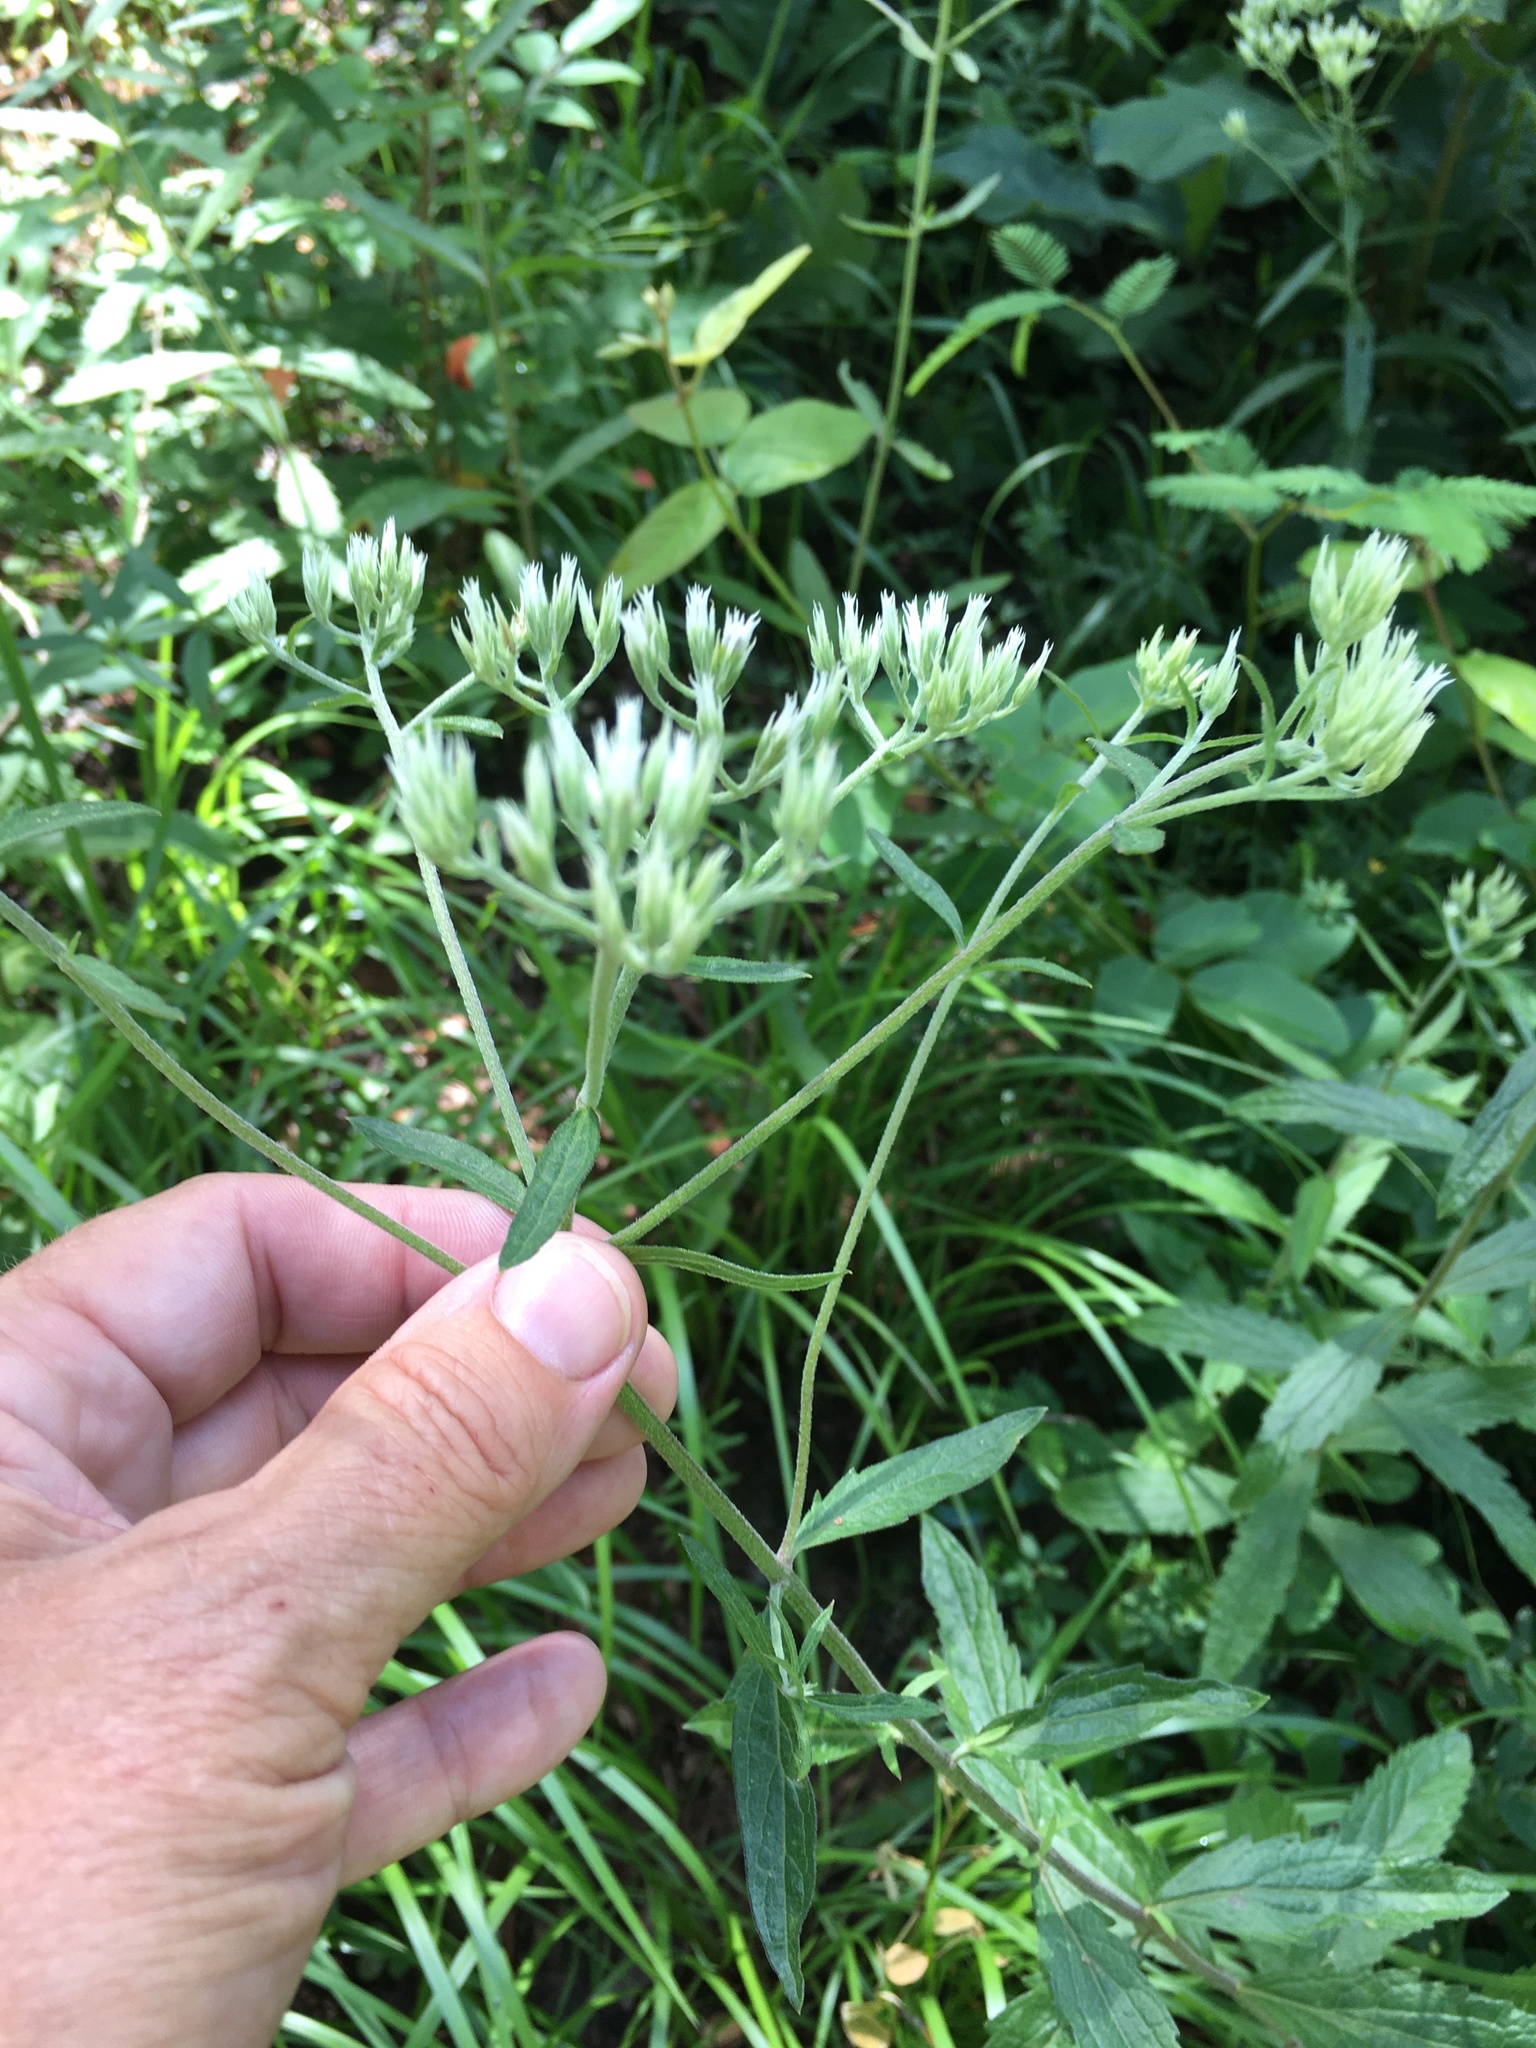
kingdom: Plantae
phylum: Tracheophyta
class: Magnoliopsida
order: Asterales
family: Asteraceae
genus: Eupatorium
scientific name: Eupatorium album
